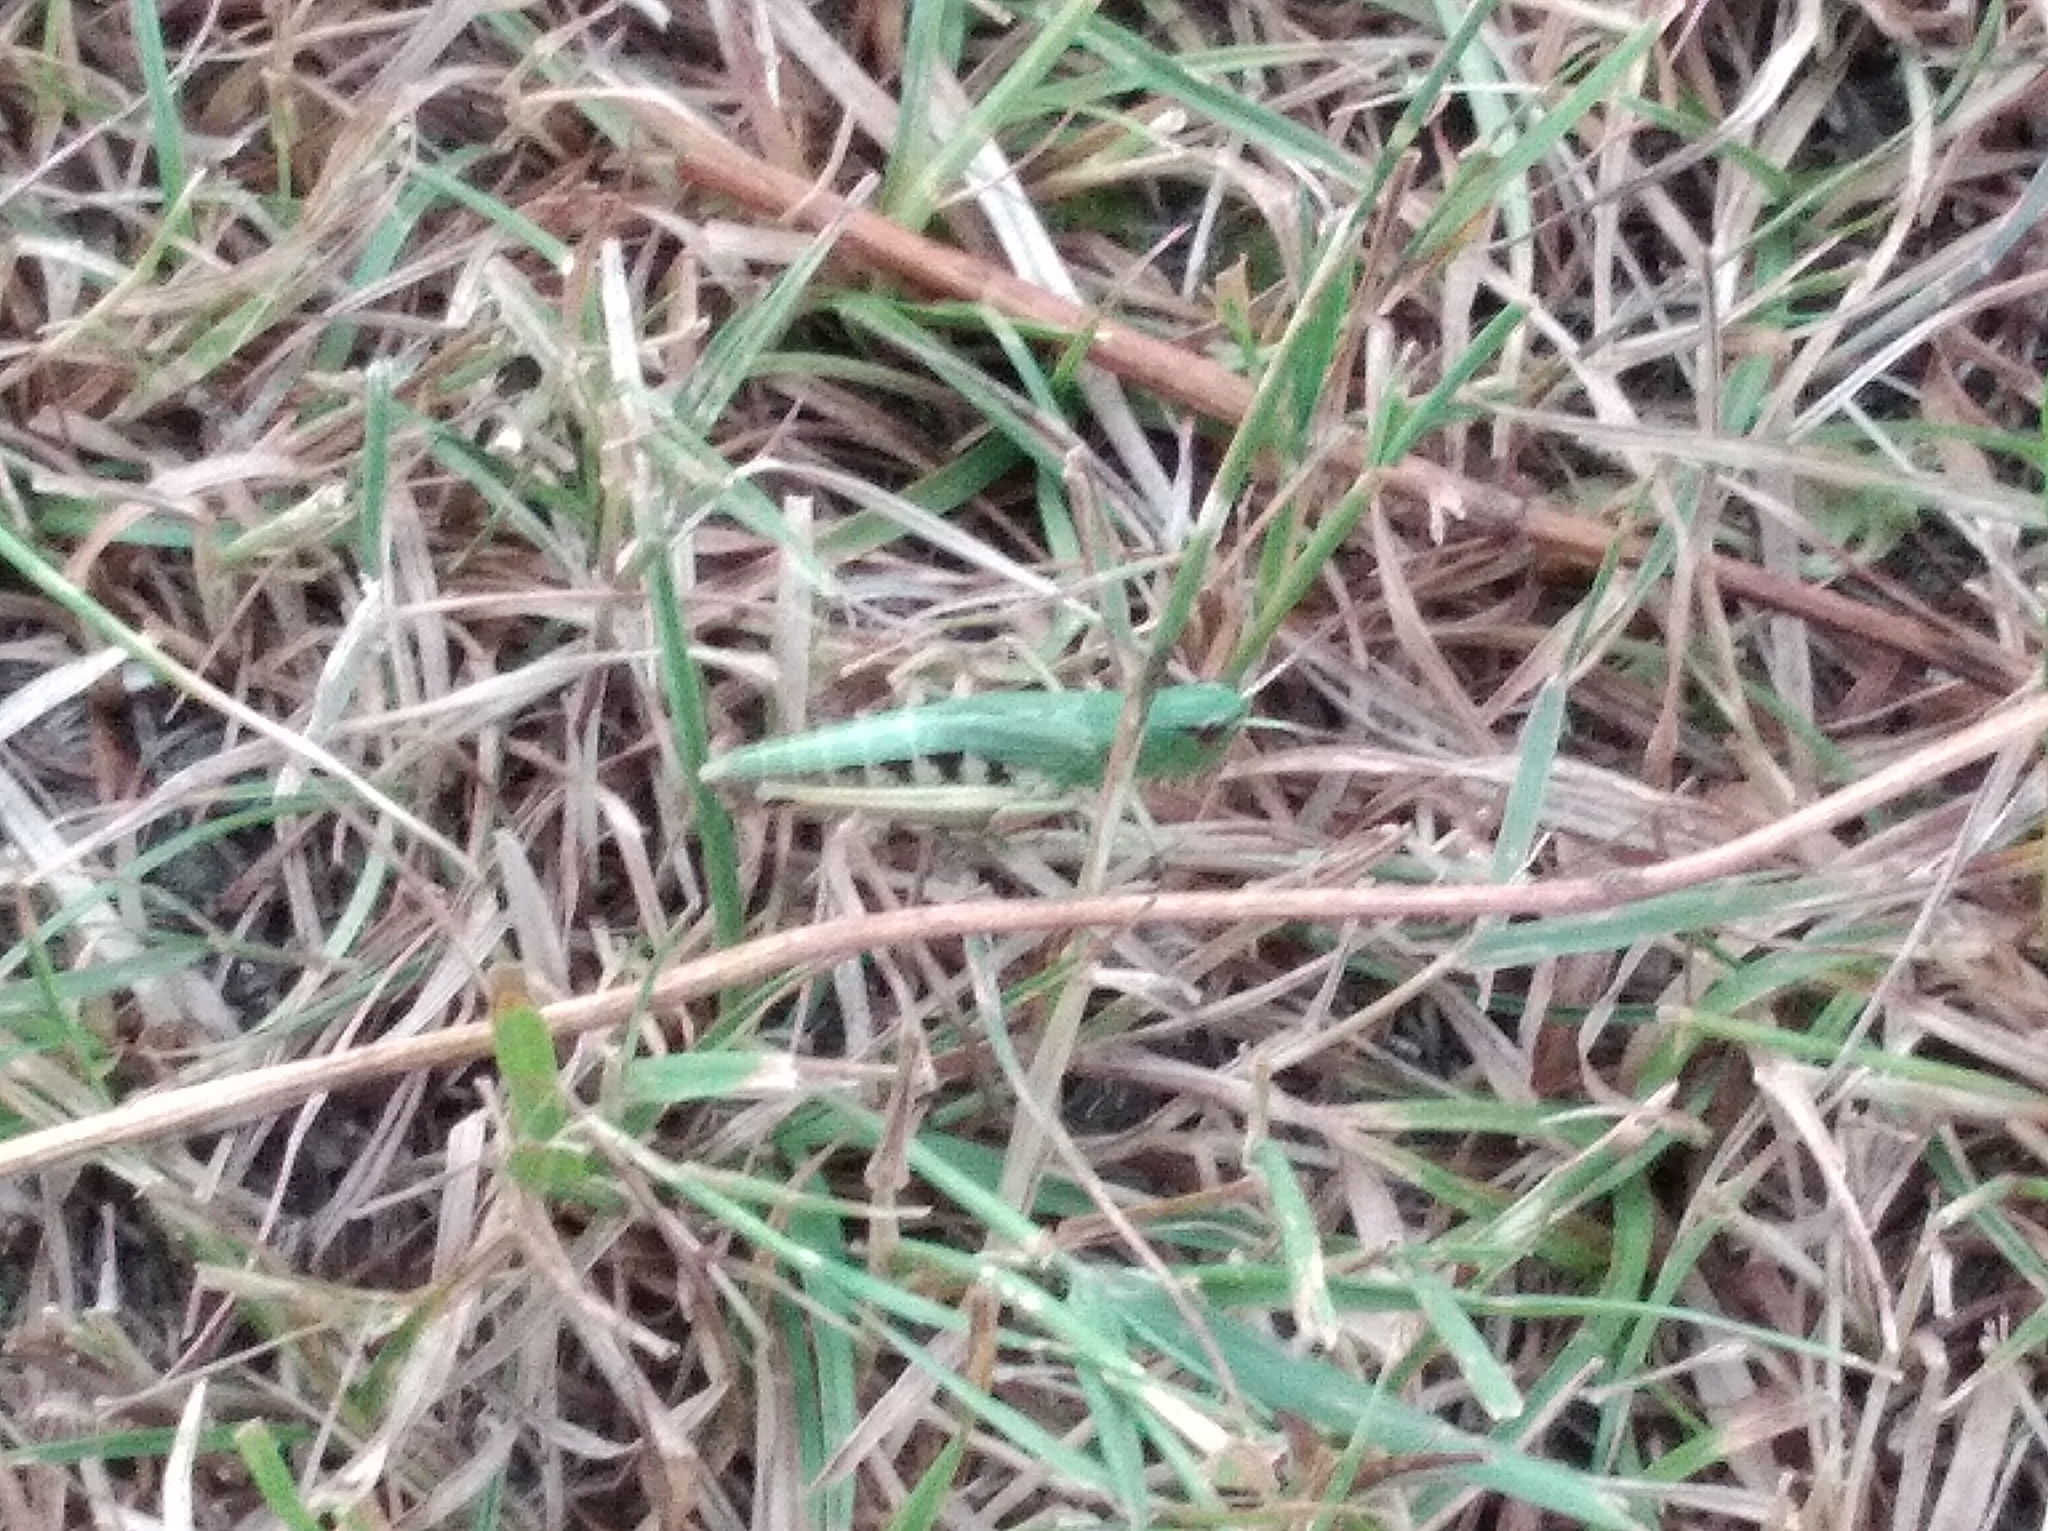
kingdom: Animalia
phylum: Arthropoda
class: Insecta
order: Orthoptera
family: Acrididae
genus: Pseudochorthippus
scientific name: Pseudochorthippus parallelus
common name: Meadow grasshopper
